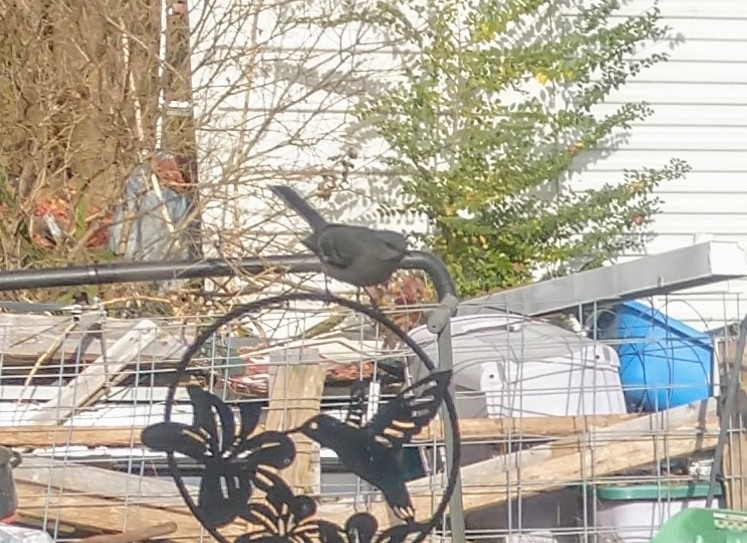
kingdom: Animalia
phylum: Chordata
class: Aves
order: Passeriformes
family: Mimidae
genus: Mimus
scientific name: Mimus polyglottos
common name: Northern mockingbird
